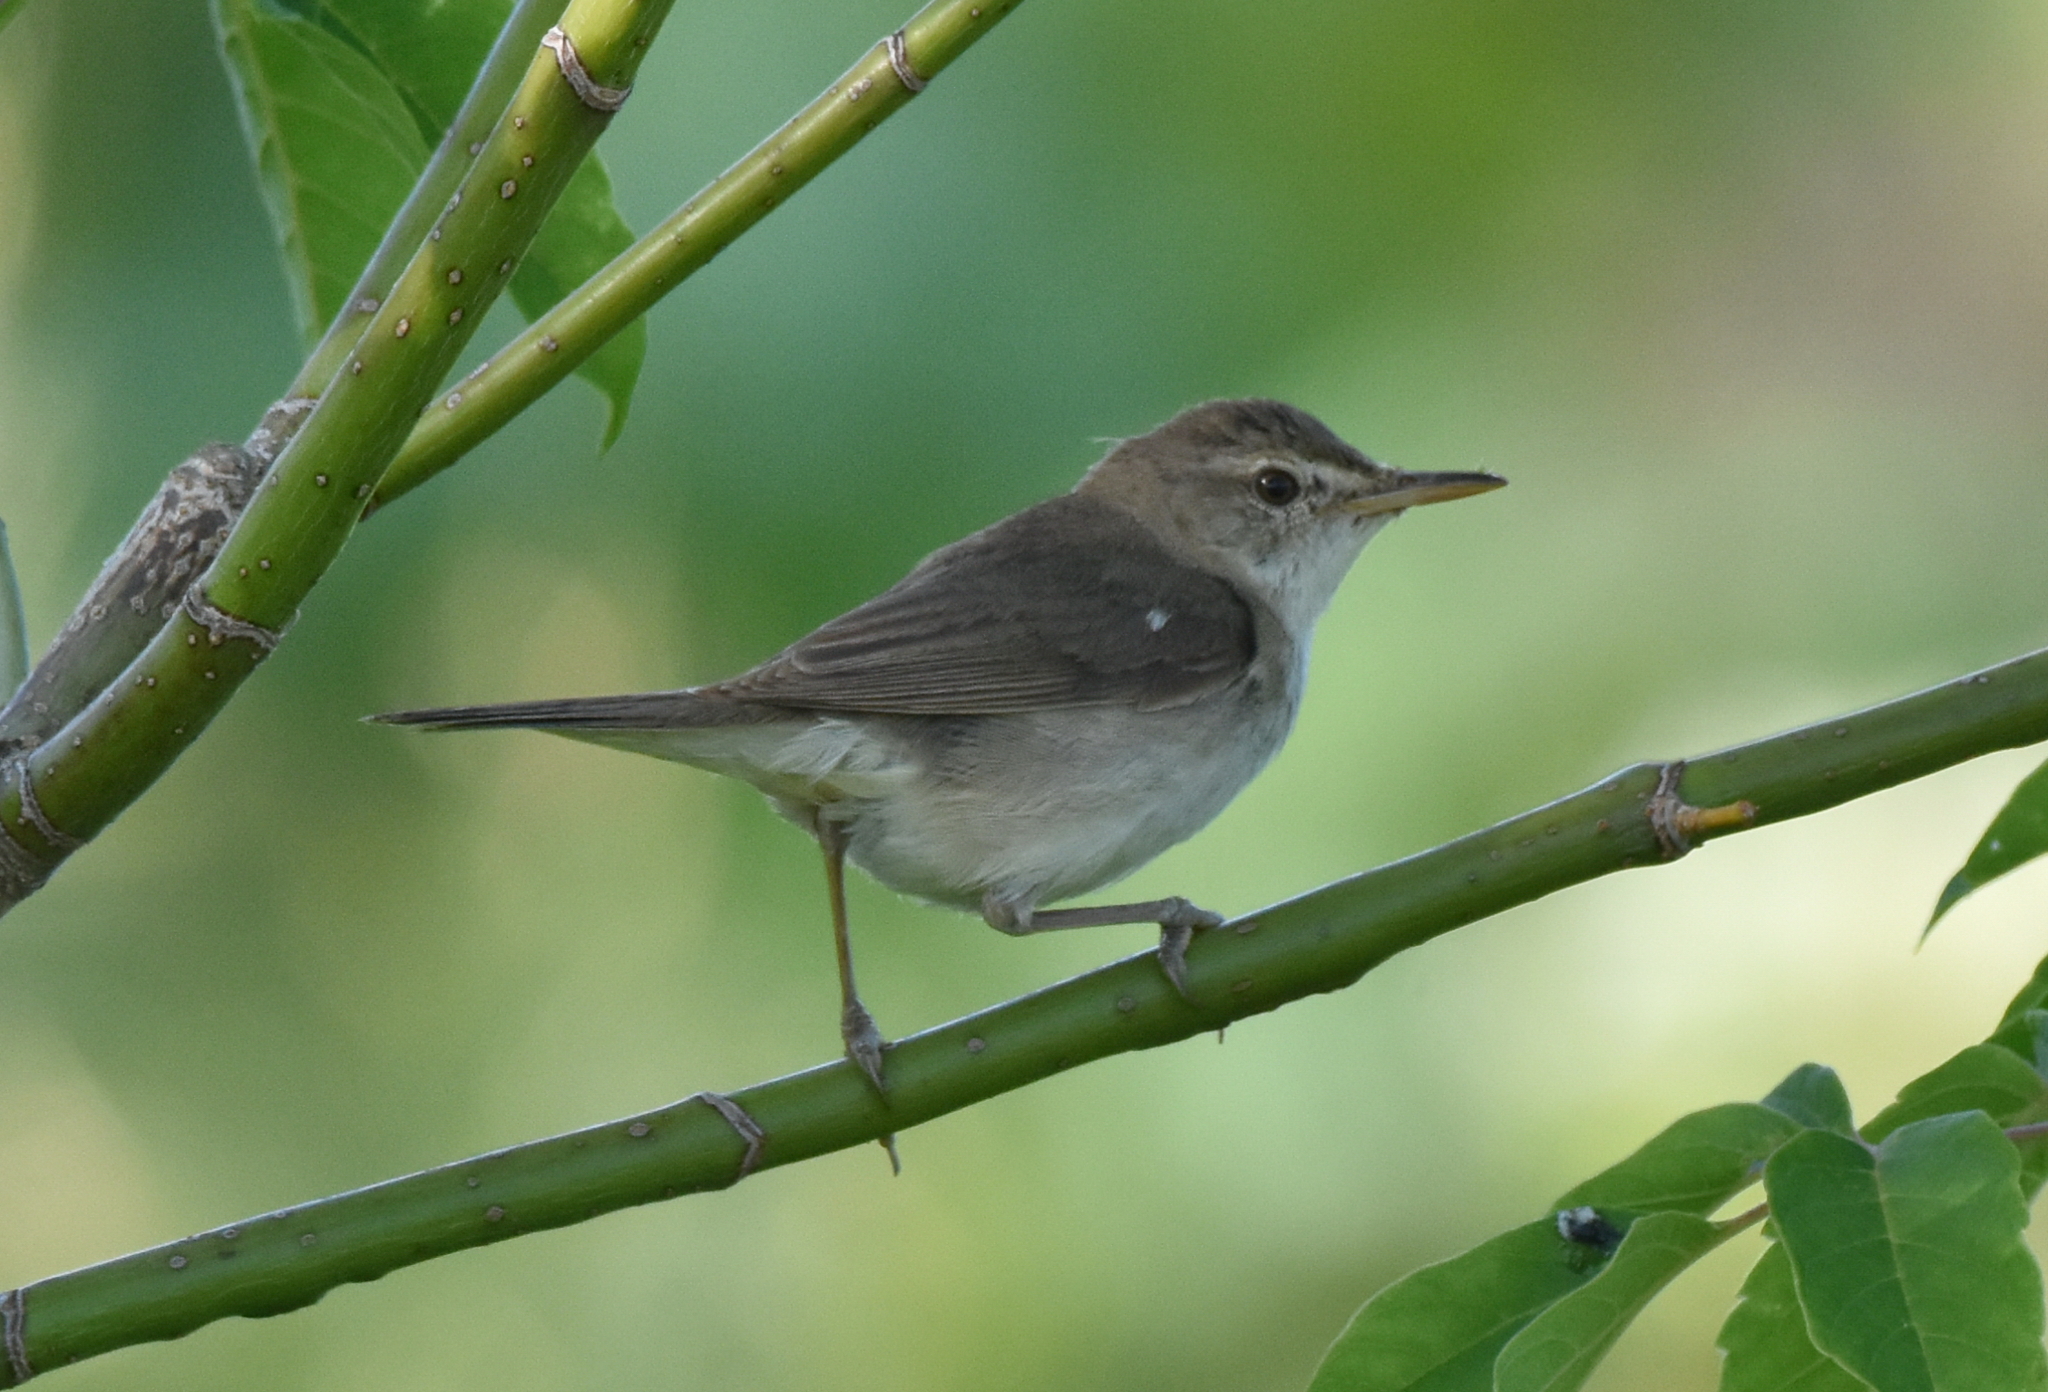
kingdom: Animalia
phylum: Chordata
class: Aves
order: Passeriformes
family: Acrocephalidae
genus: Acrocephalus
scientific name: Acrocephalus dumetorum
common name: Blyth's reed warbler
